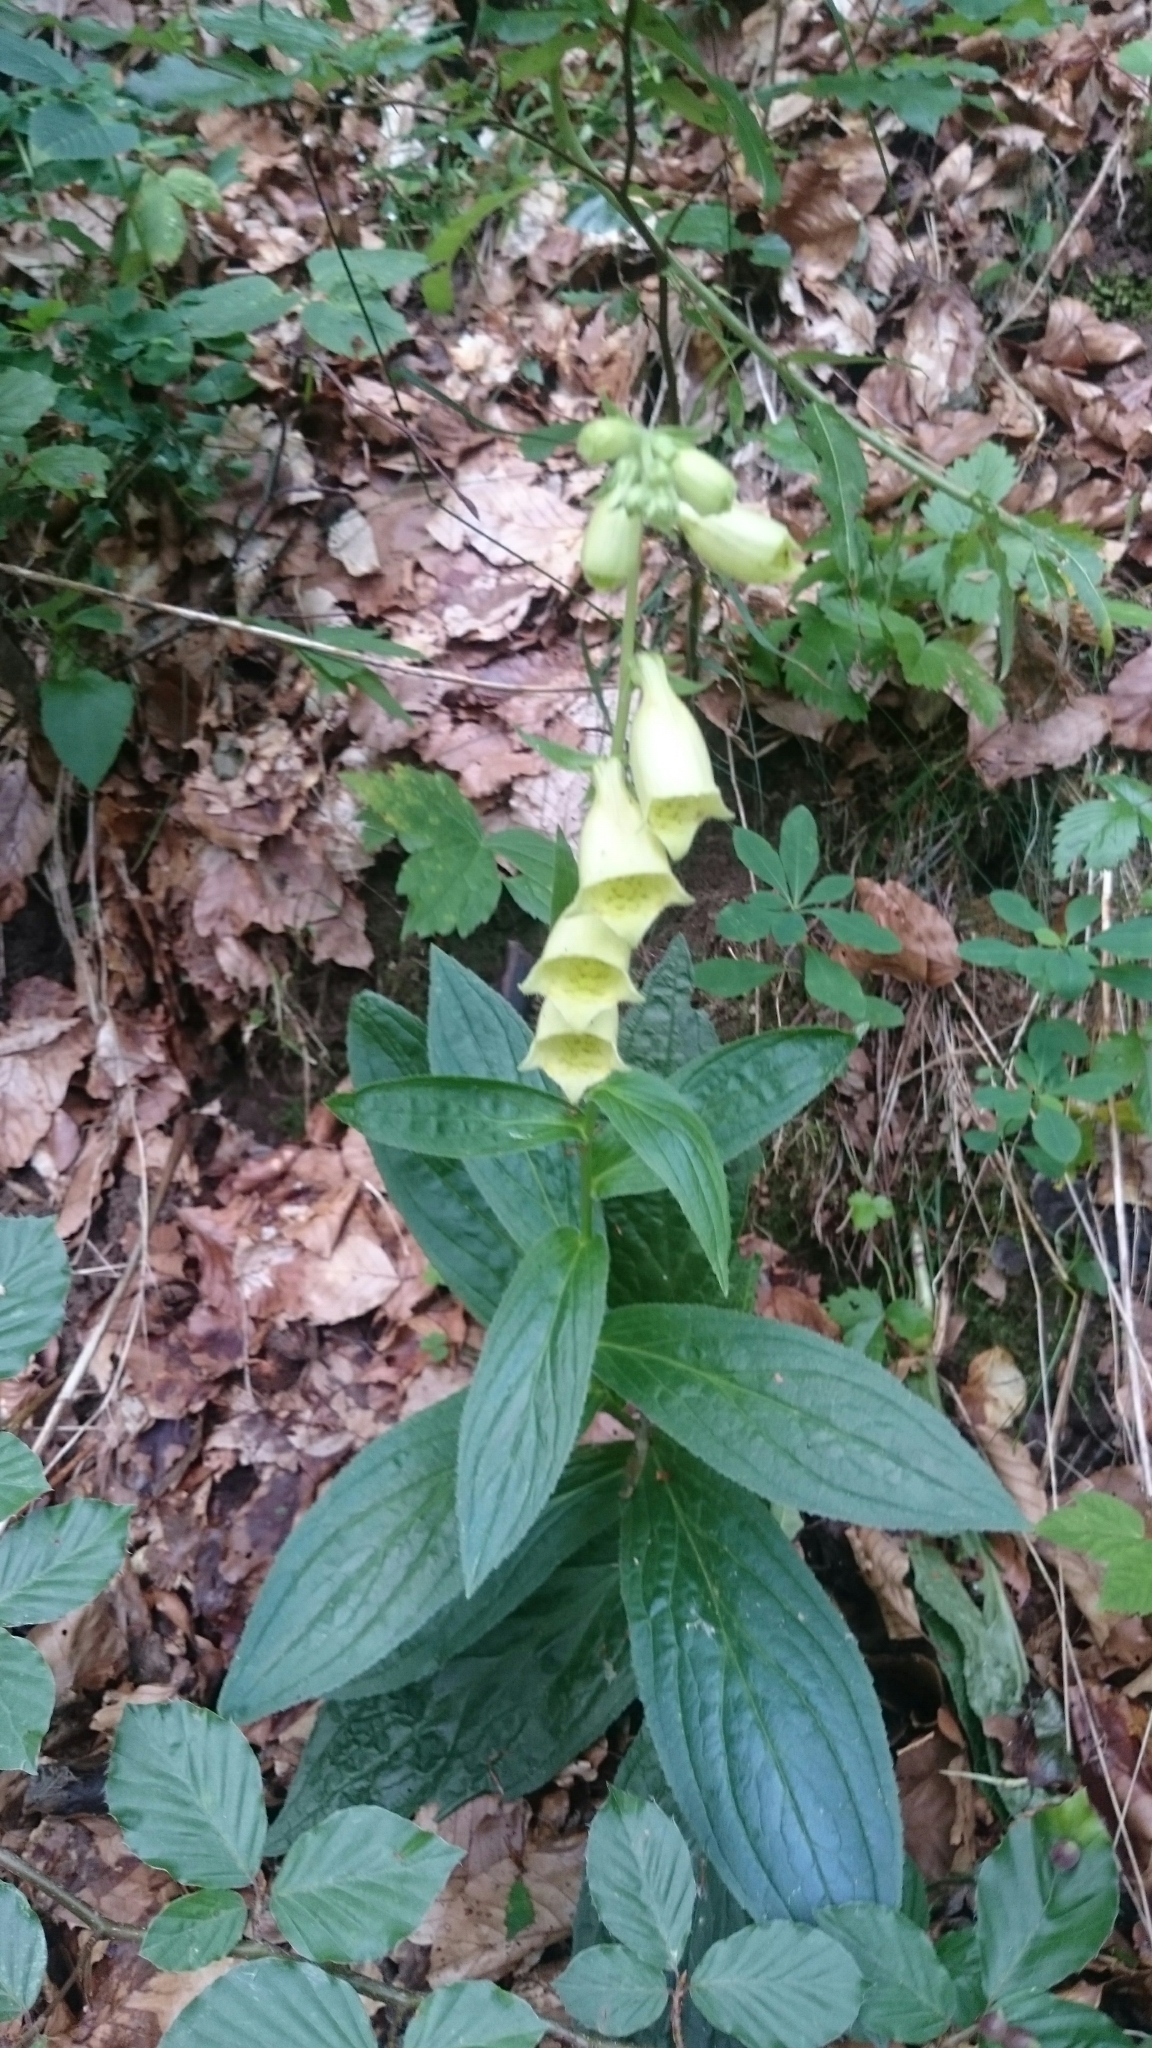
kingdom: Plantae
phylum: Tracheophyta
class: Magnoliopsida
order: Lamiales
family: Plantaginaceae
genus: Digitalis
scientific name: Digitalis grandiflora
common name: Yellow foxglove
